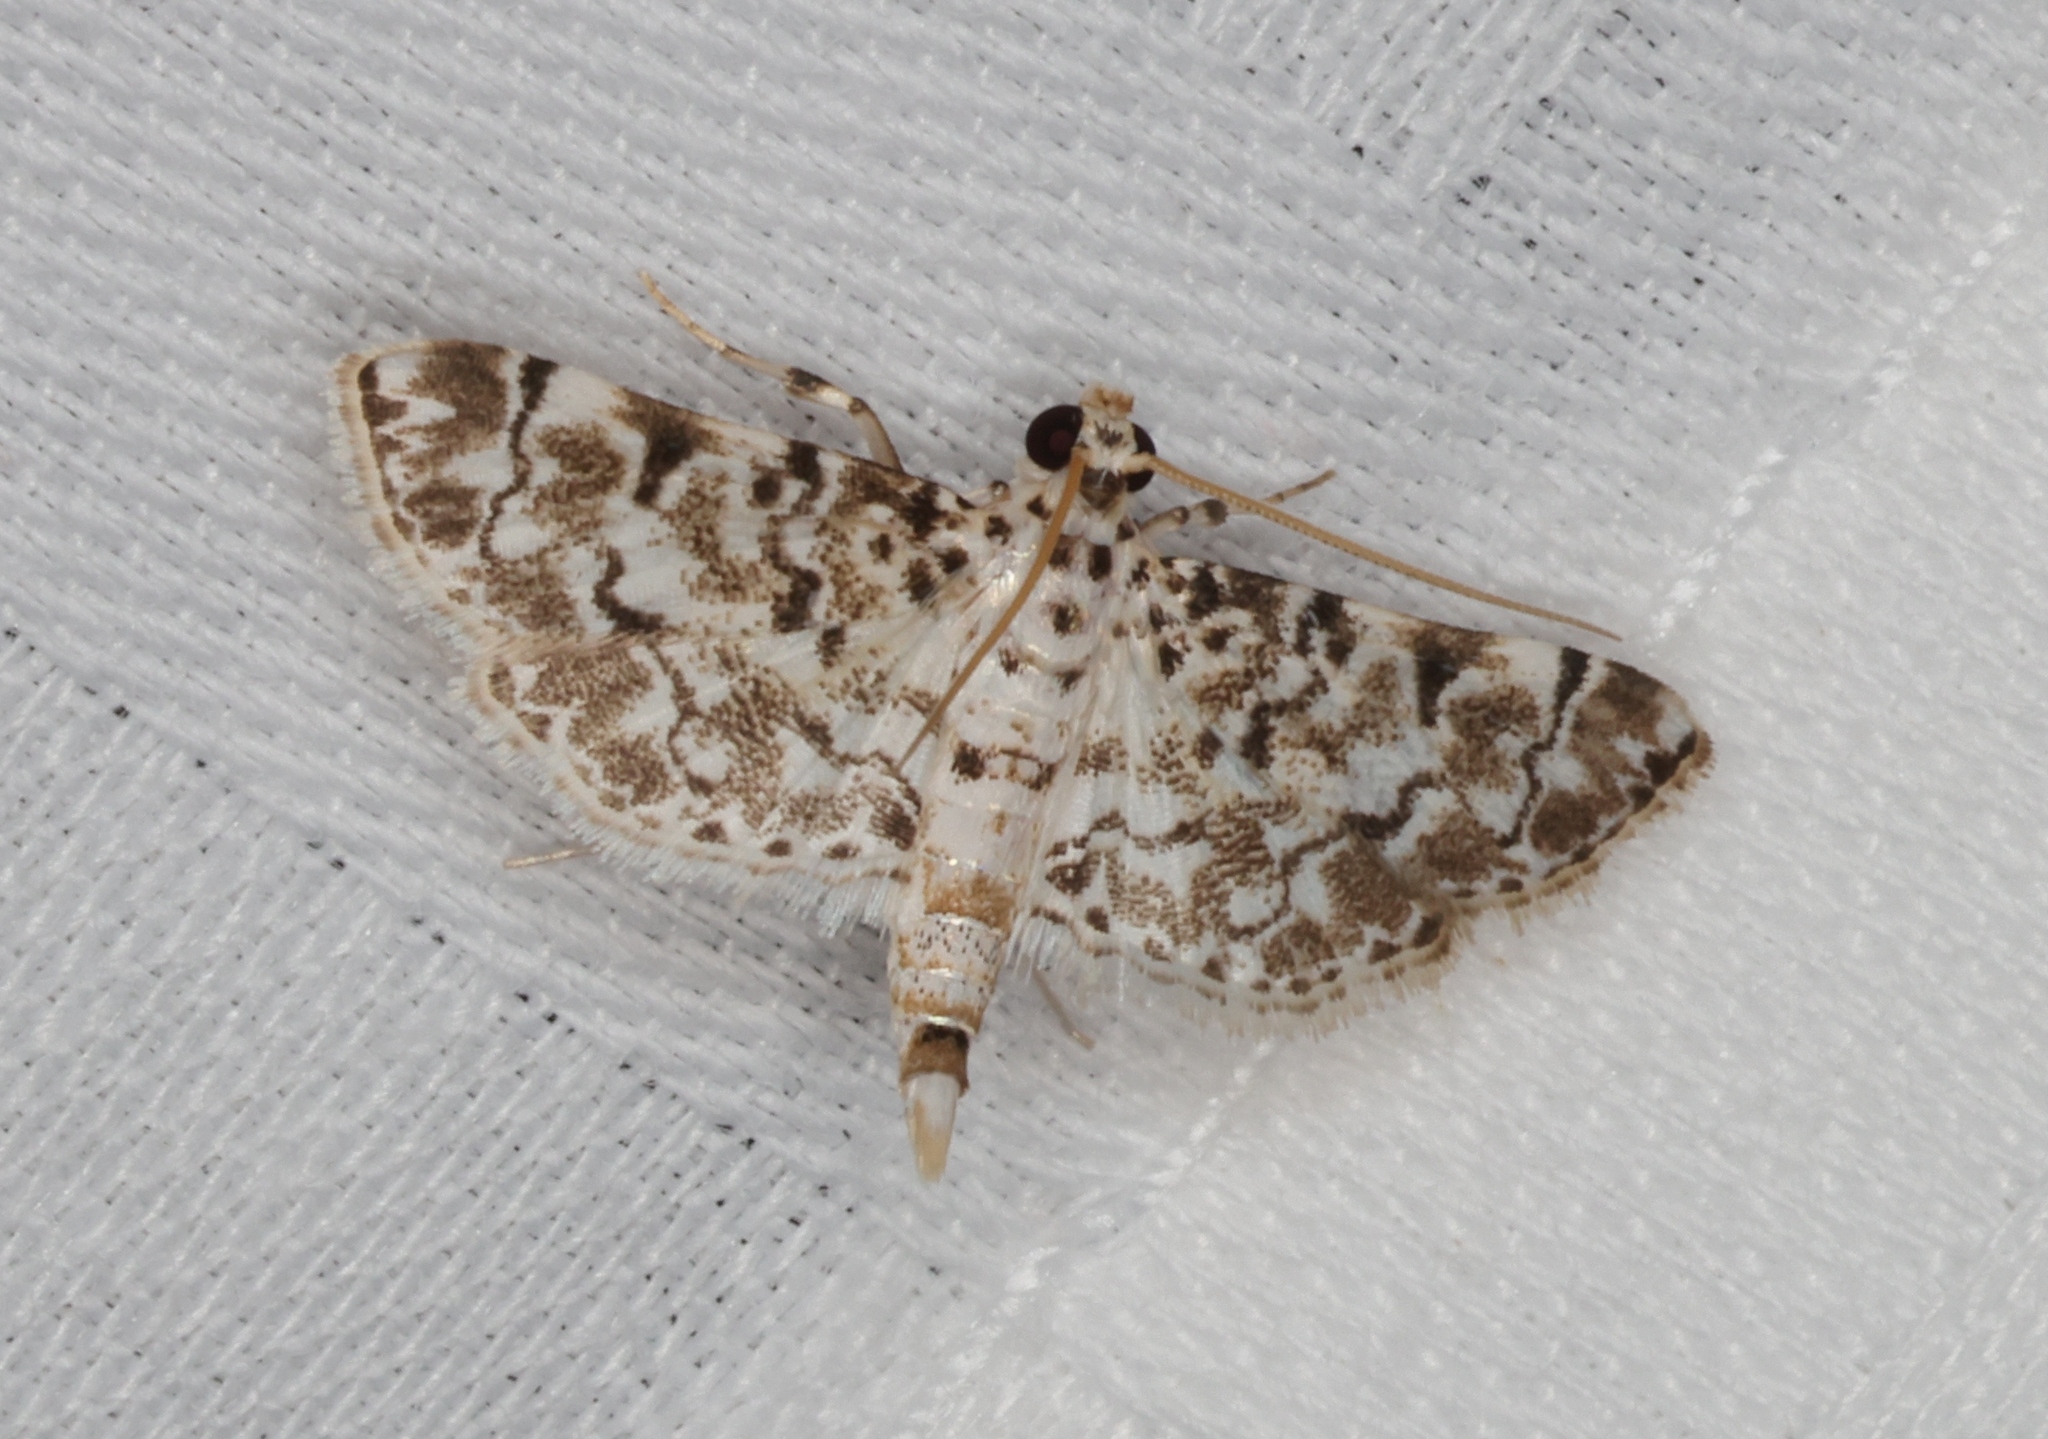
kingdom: Animalia
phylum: Arthropoda
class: Insecta
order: Lepidoptera
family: Crambidae
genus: Metoeca
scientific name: Metoeca foedalis
